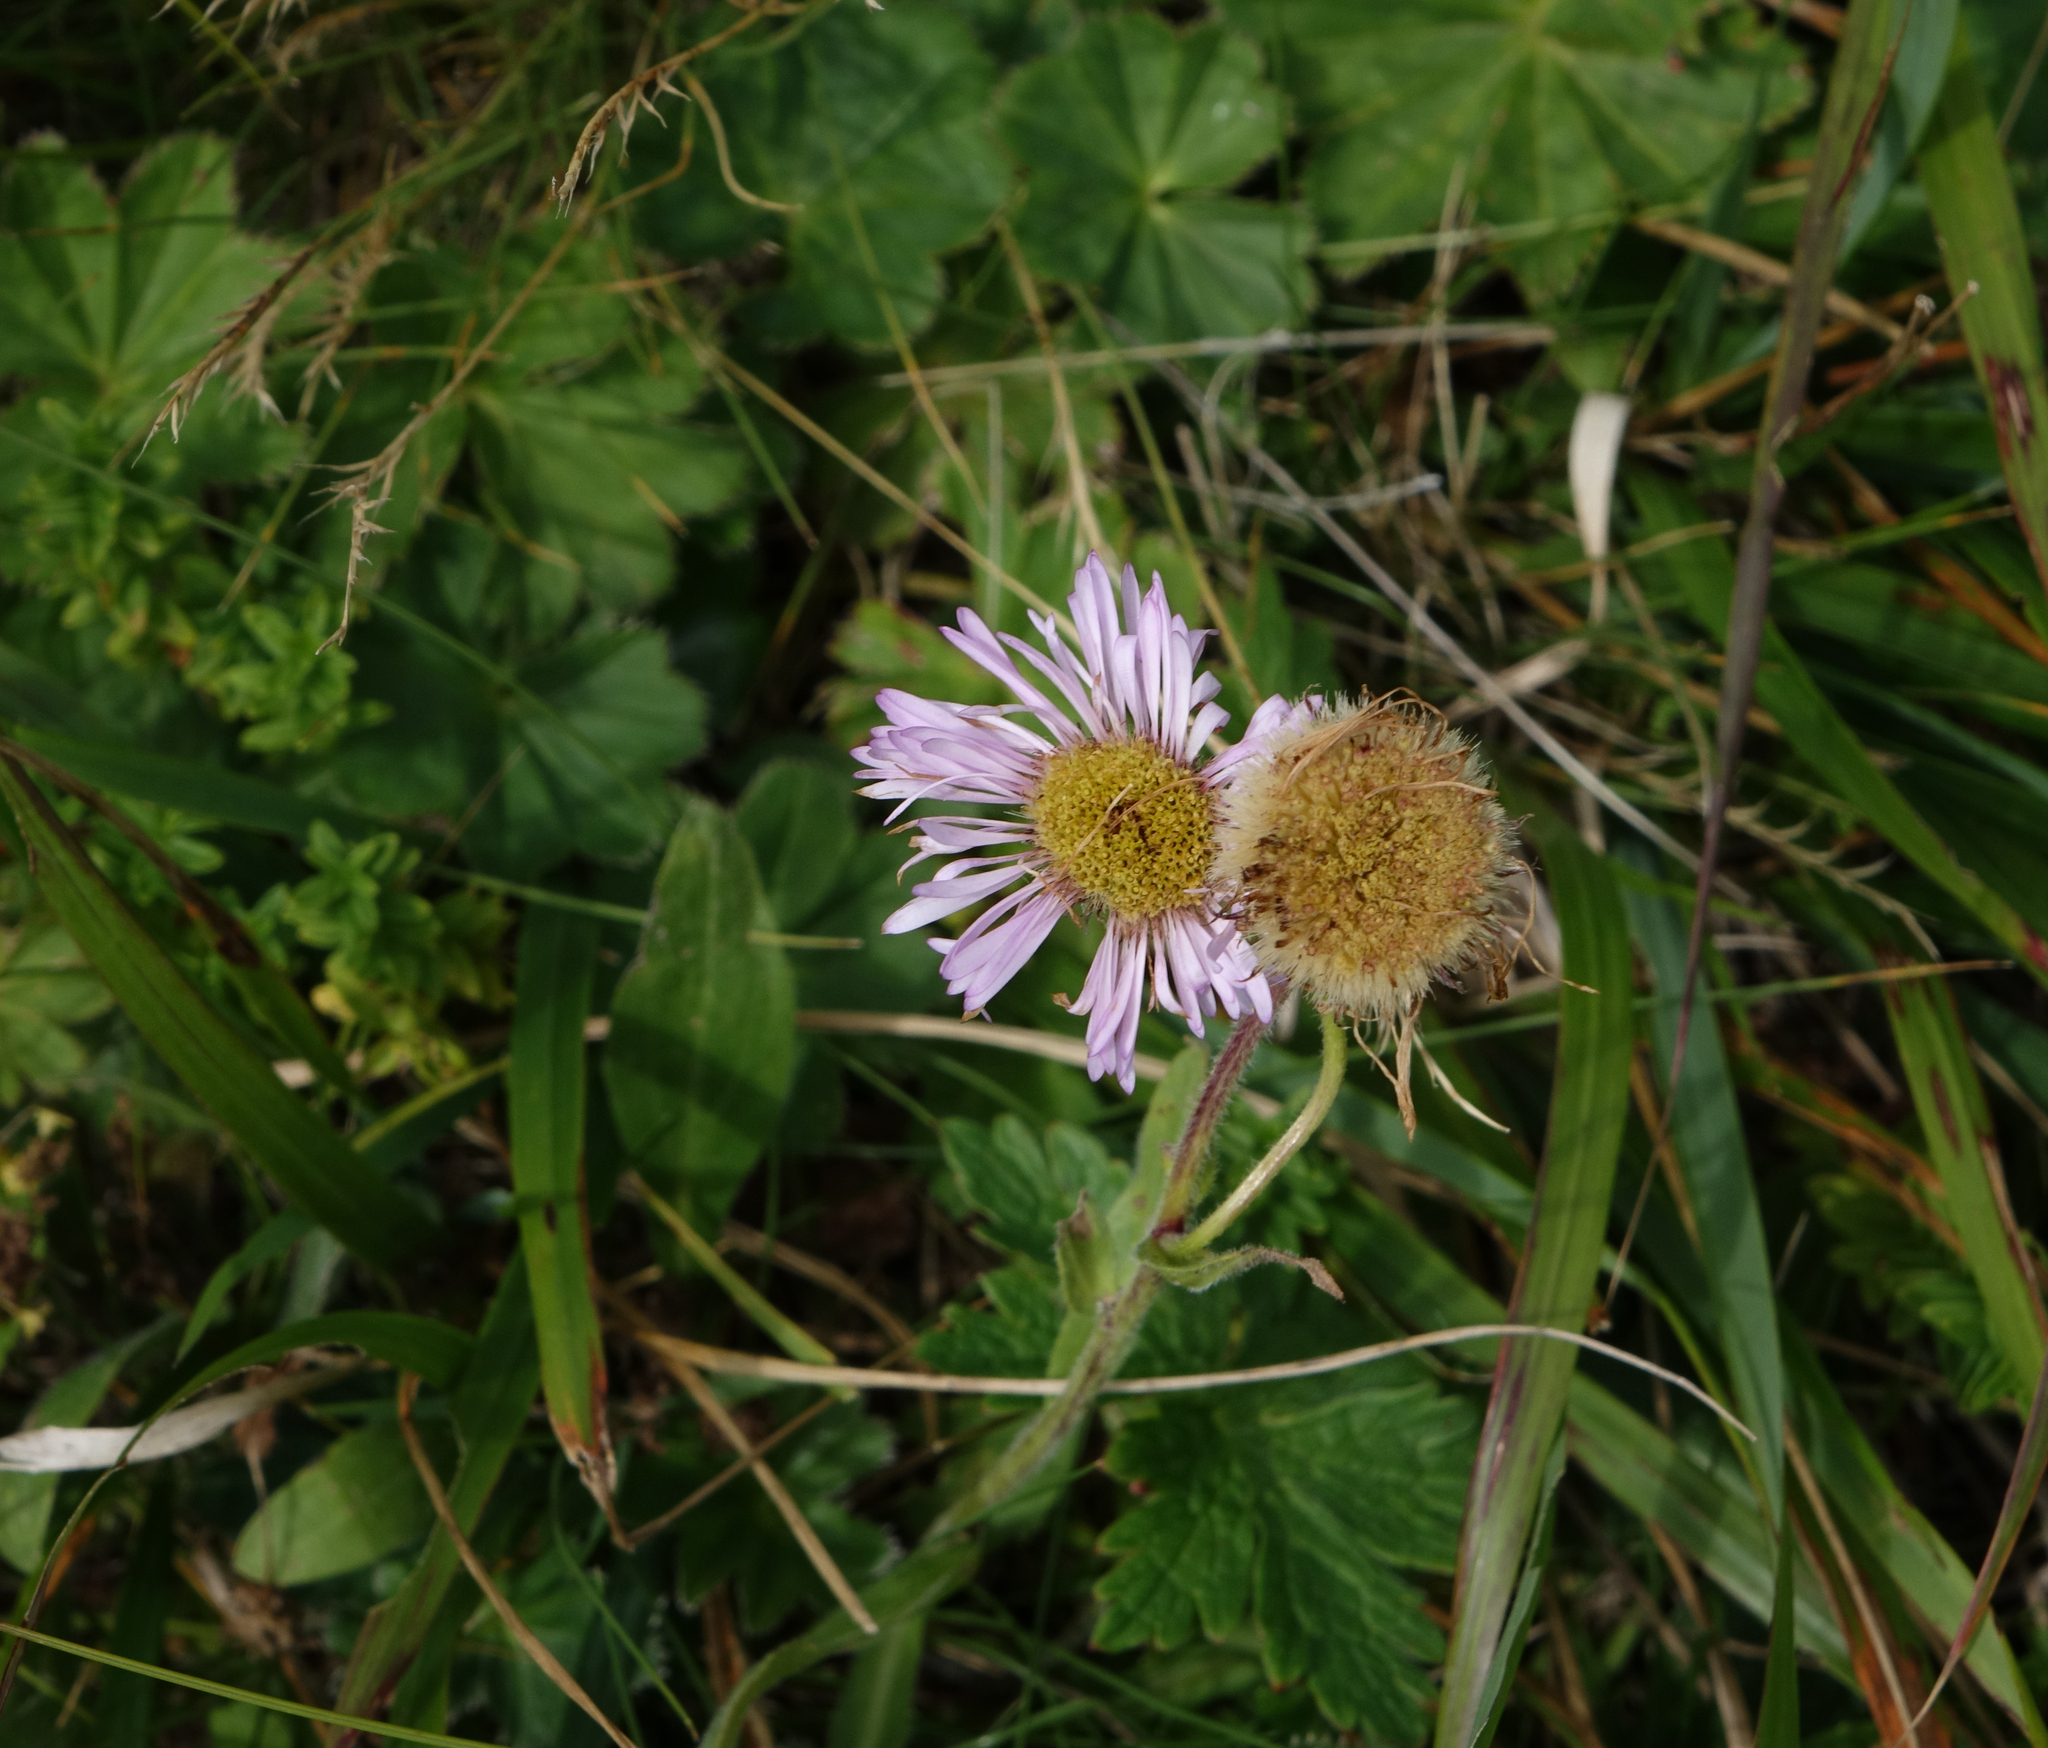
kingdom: Plantae
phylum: Tracheophyta
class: Magnoliopsida
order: Asterales
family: Asteraceae
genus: Erigeron
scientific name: Erigeron caucasicus
